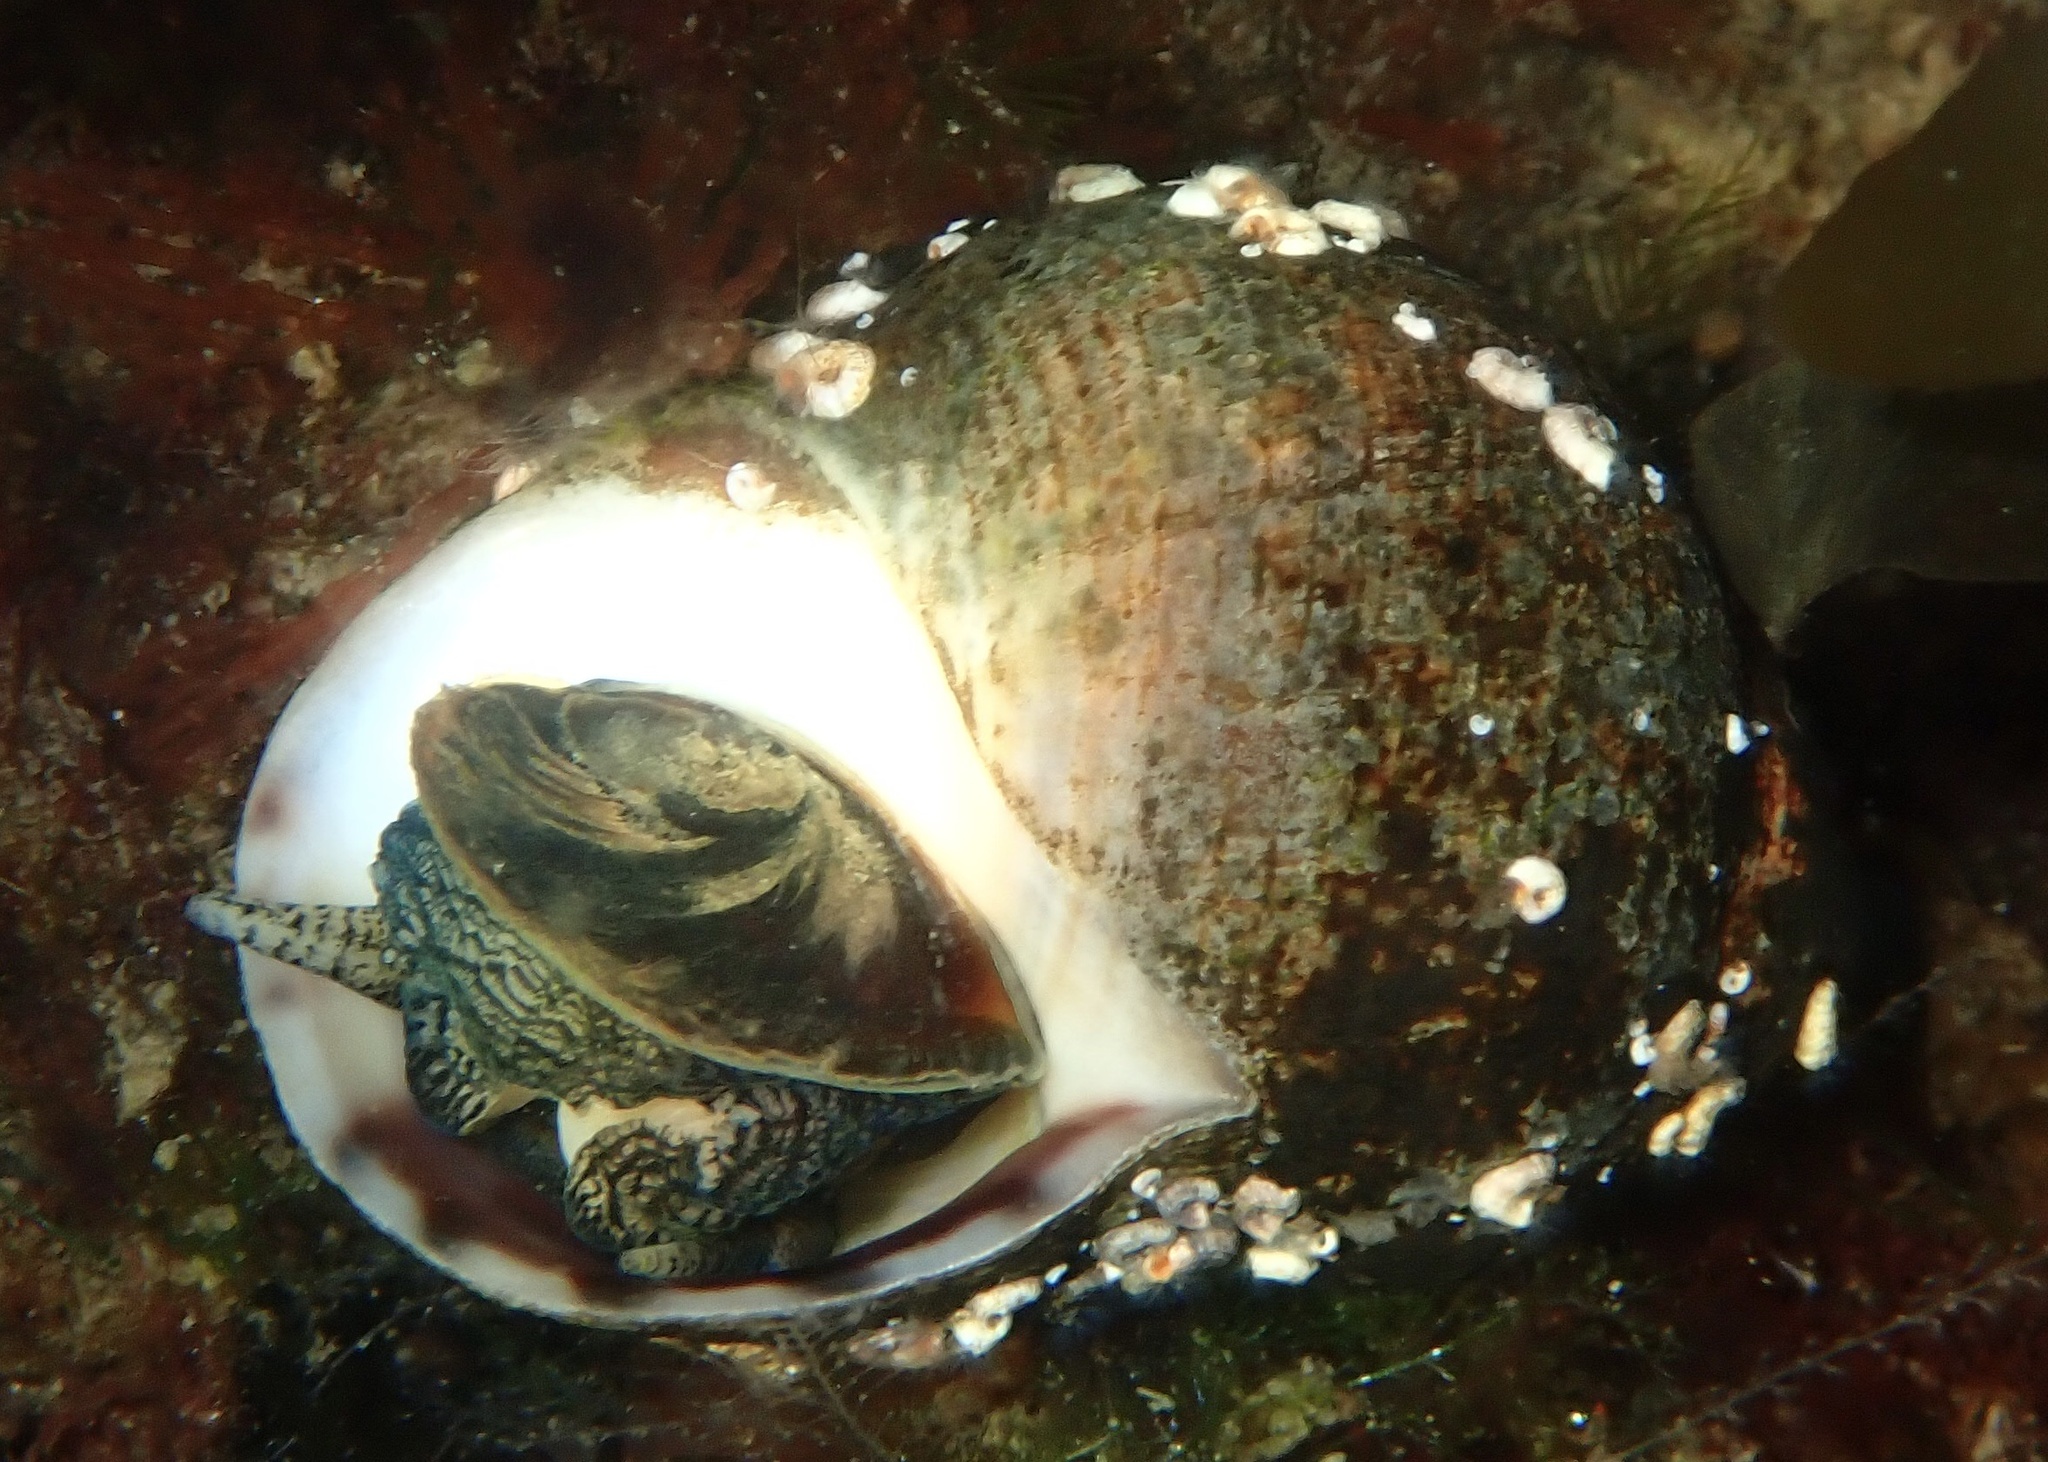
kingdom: Animalia
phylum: Mollusca
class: Gastropoda
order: Littorinimorpha
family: Littorinidae
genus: Littorina
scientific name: Littorina littorea
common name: Common periwinkle
